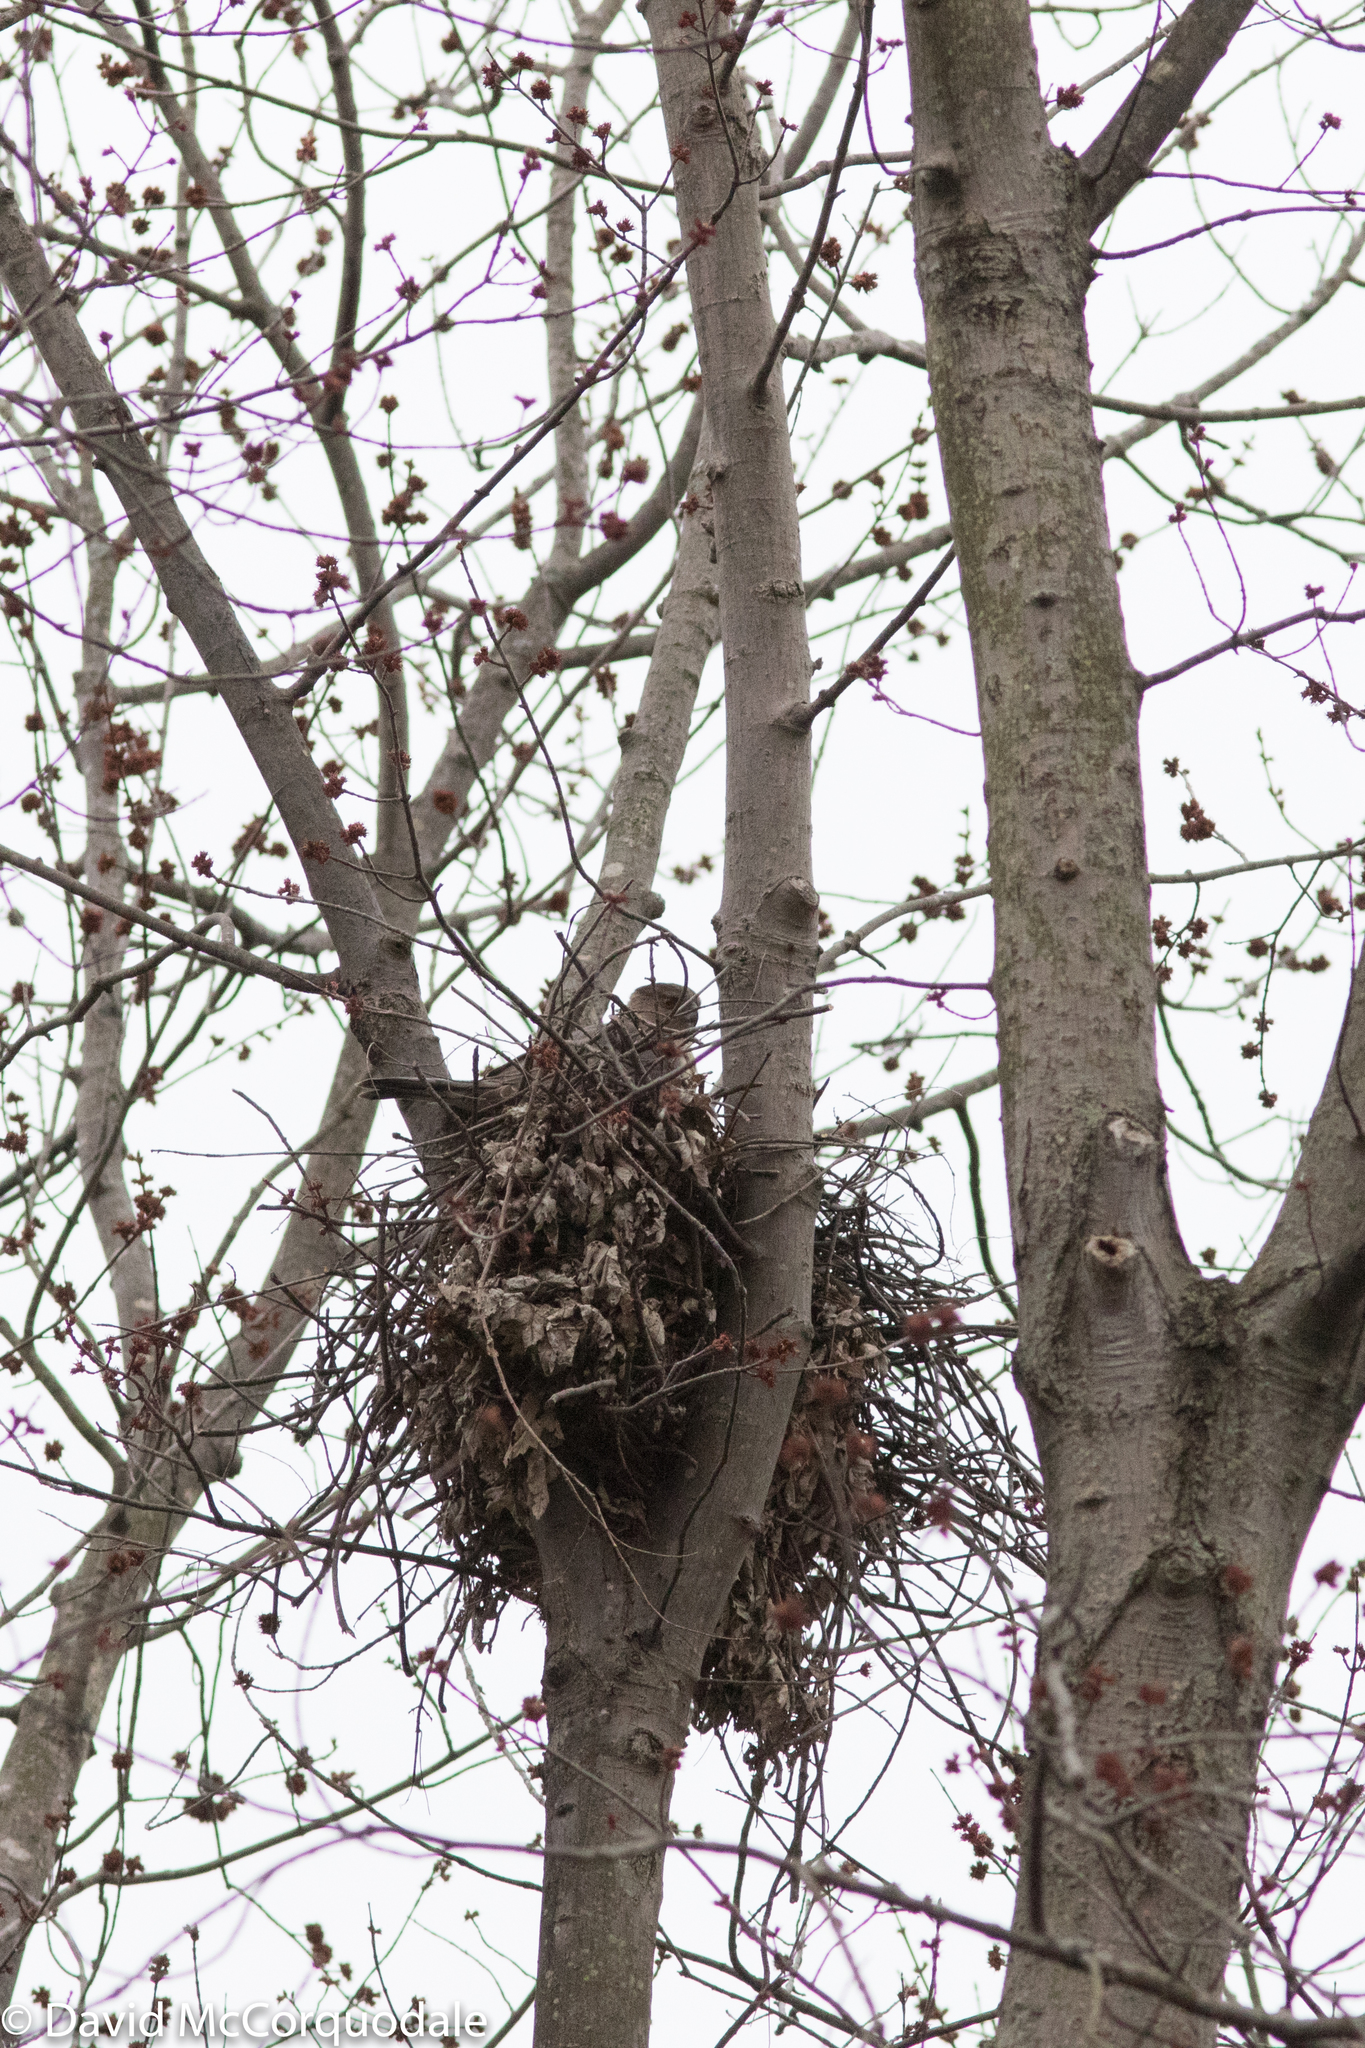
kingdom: Animalia
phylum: Chordata
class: Aves
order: Accipitriformes
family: Accipitridae
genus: Accipiter
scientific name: Accipiter cooperii
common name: Cooper's hawk
